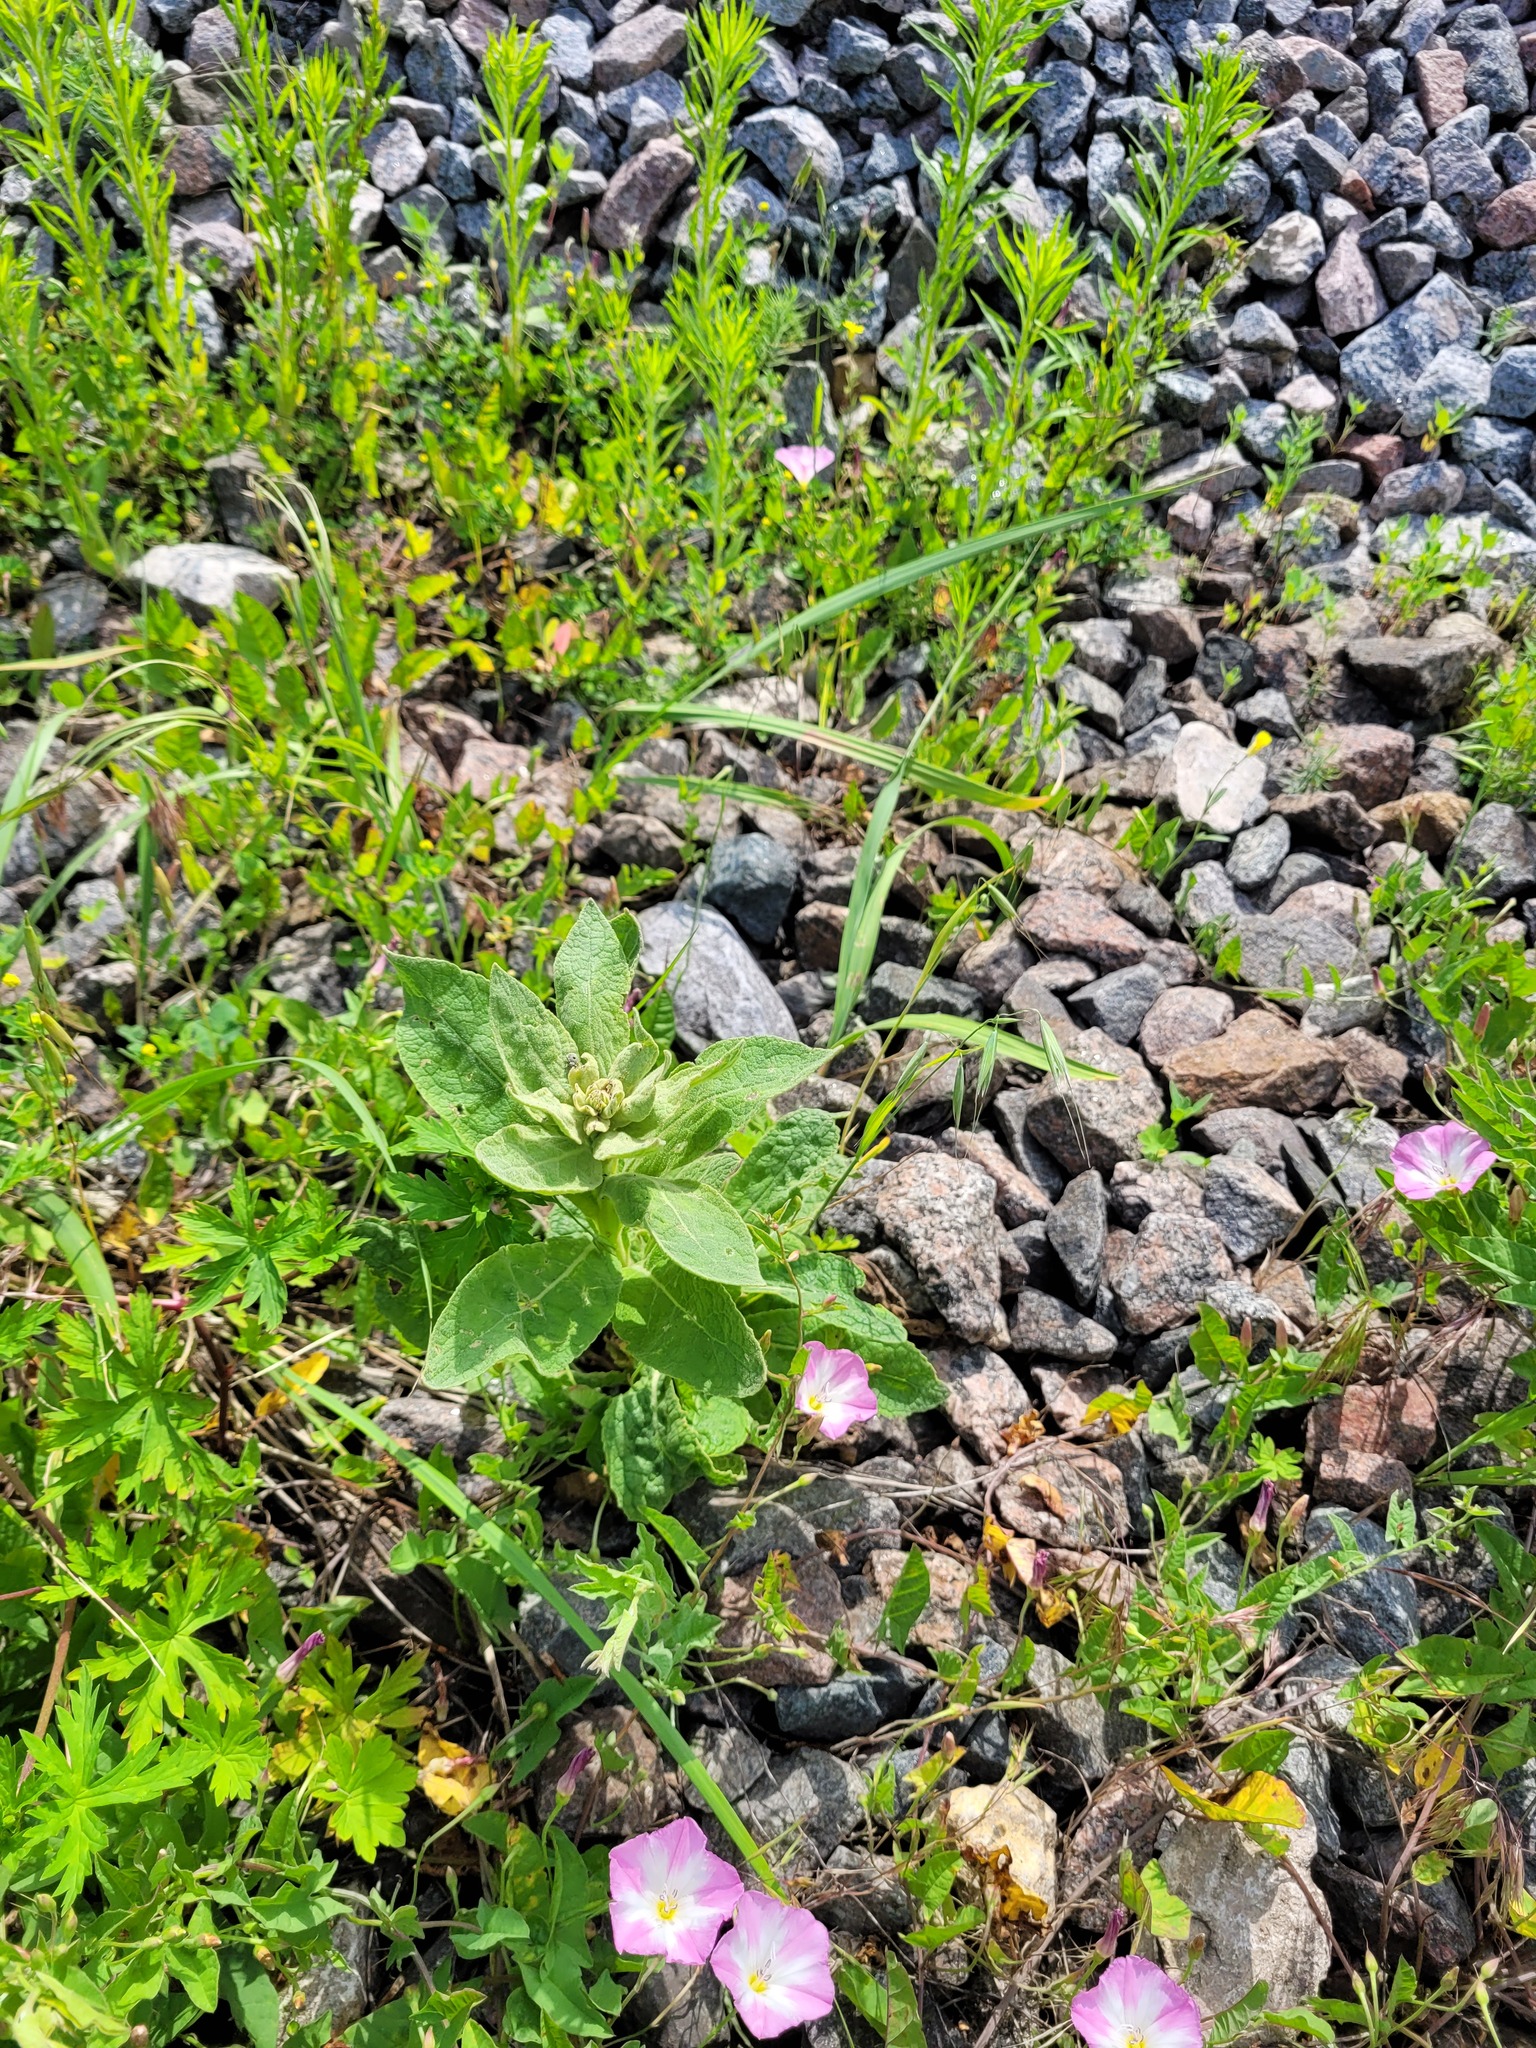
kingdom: Plantae
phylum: Tracheophyta
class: Magnoliopsida
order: Lamiales
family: Scrophulariaceae
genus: Verbascum
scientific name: Verbascum thapsus
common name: Common mullein
